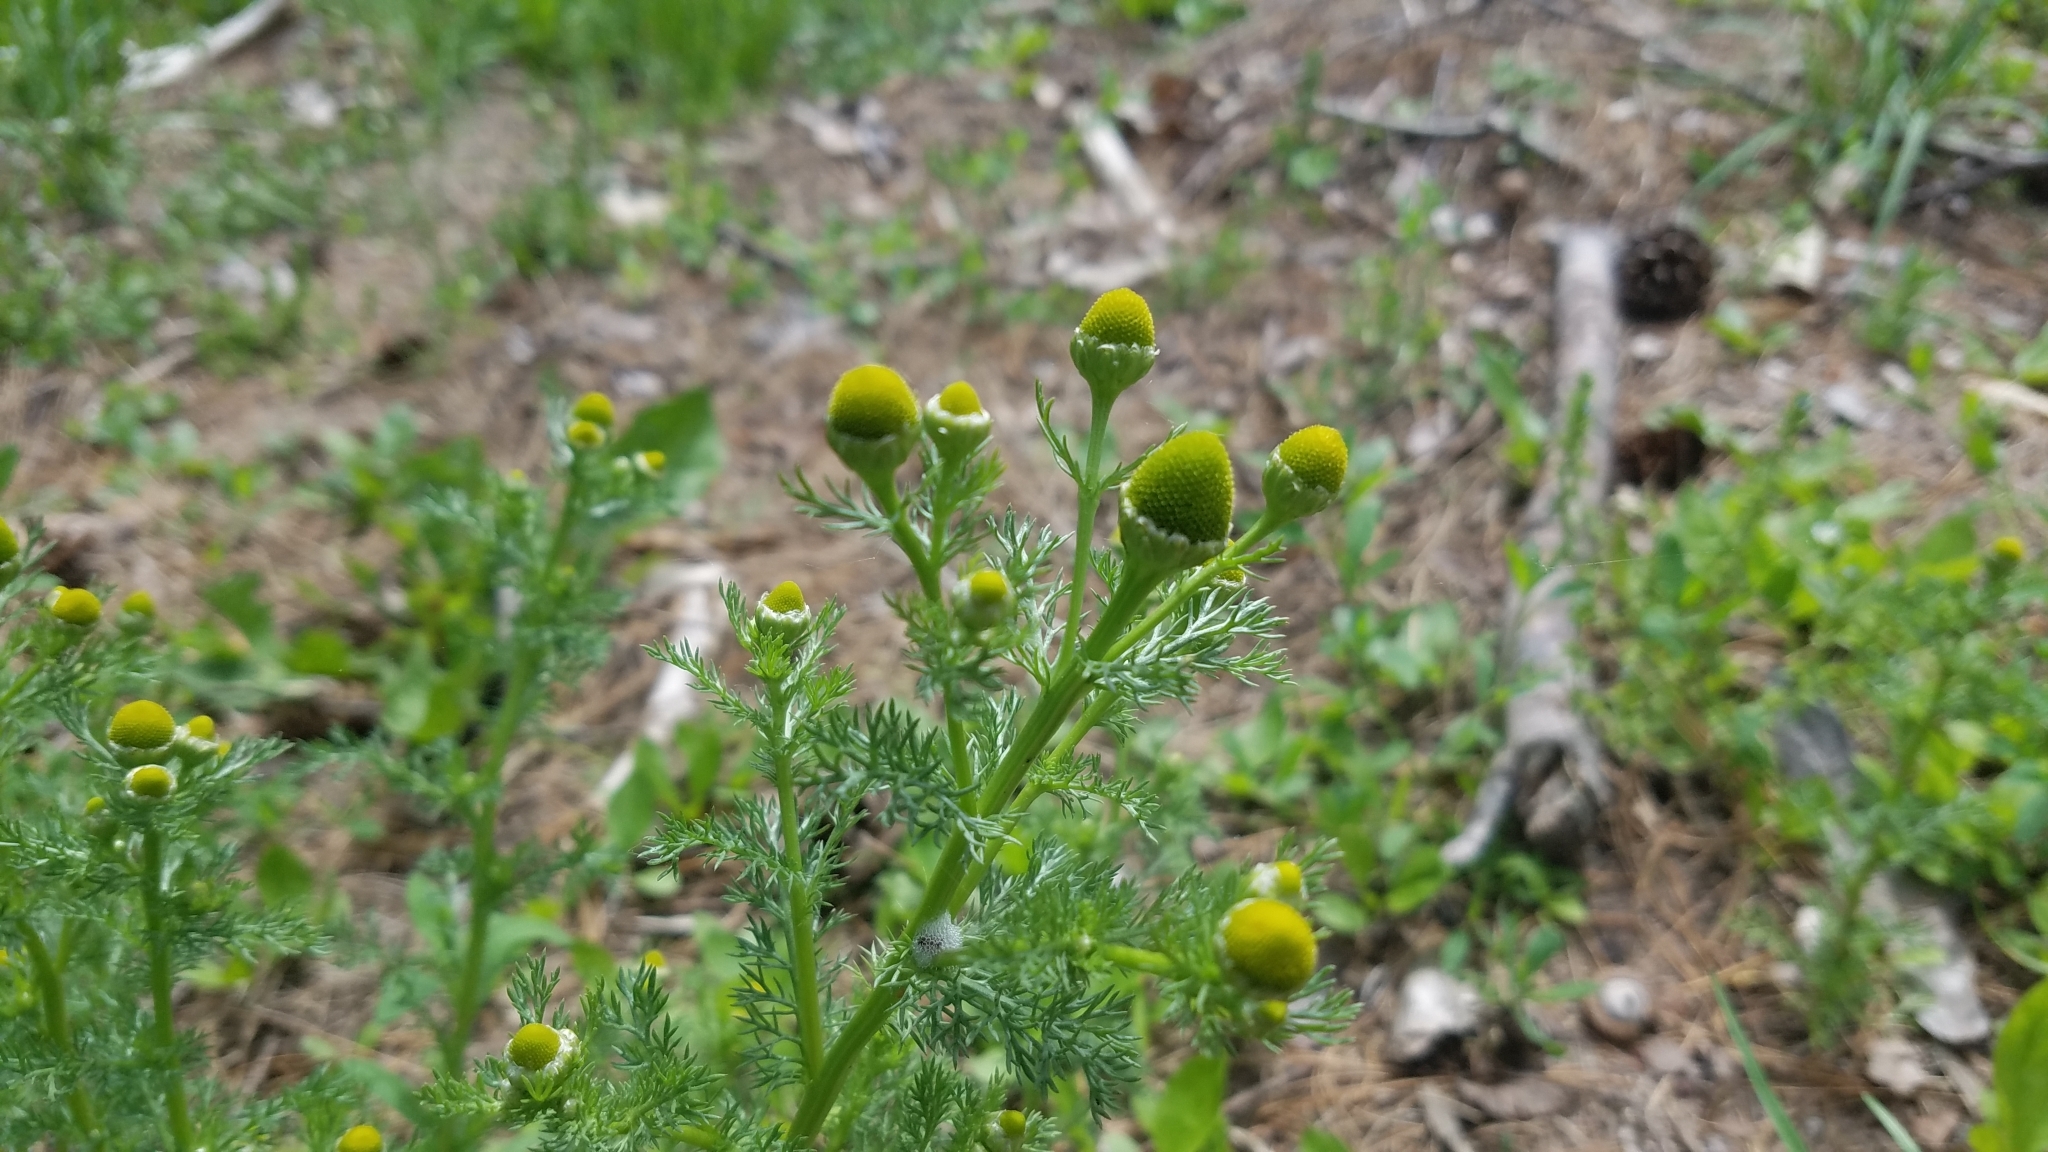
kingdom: Plantae
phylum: Tracheophyta
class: Magnoliopsida
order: Asterales
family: Asteraceae
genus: Matricaria
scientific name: Matricaria discoidea
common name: Disc mayweed
